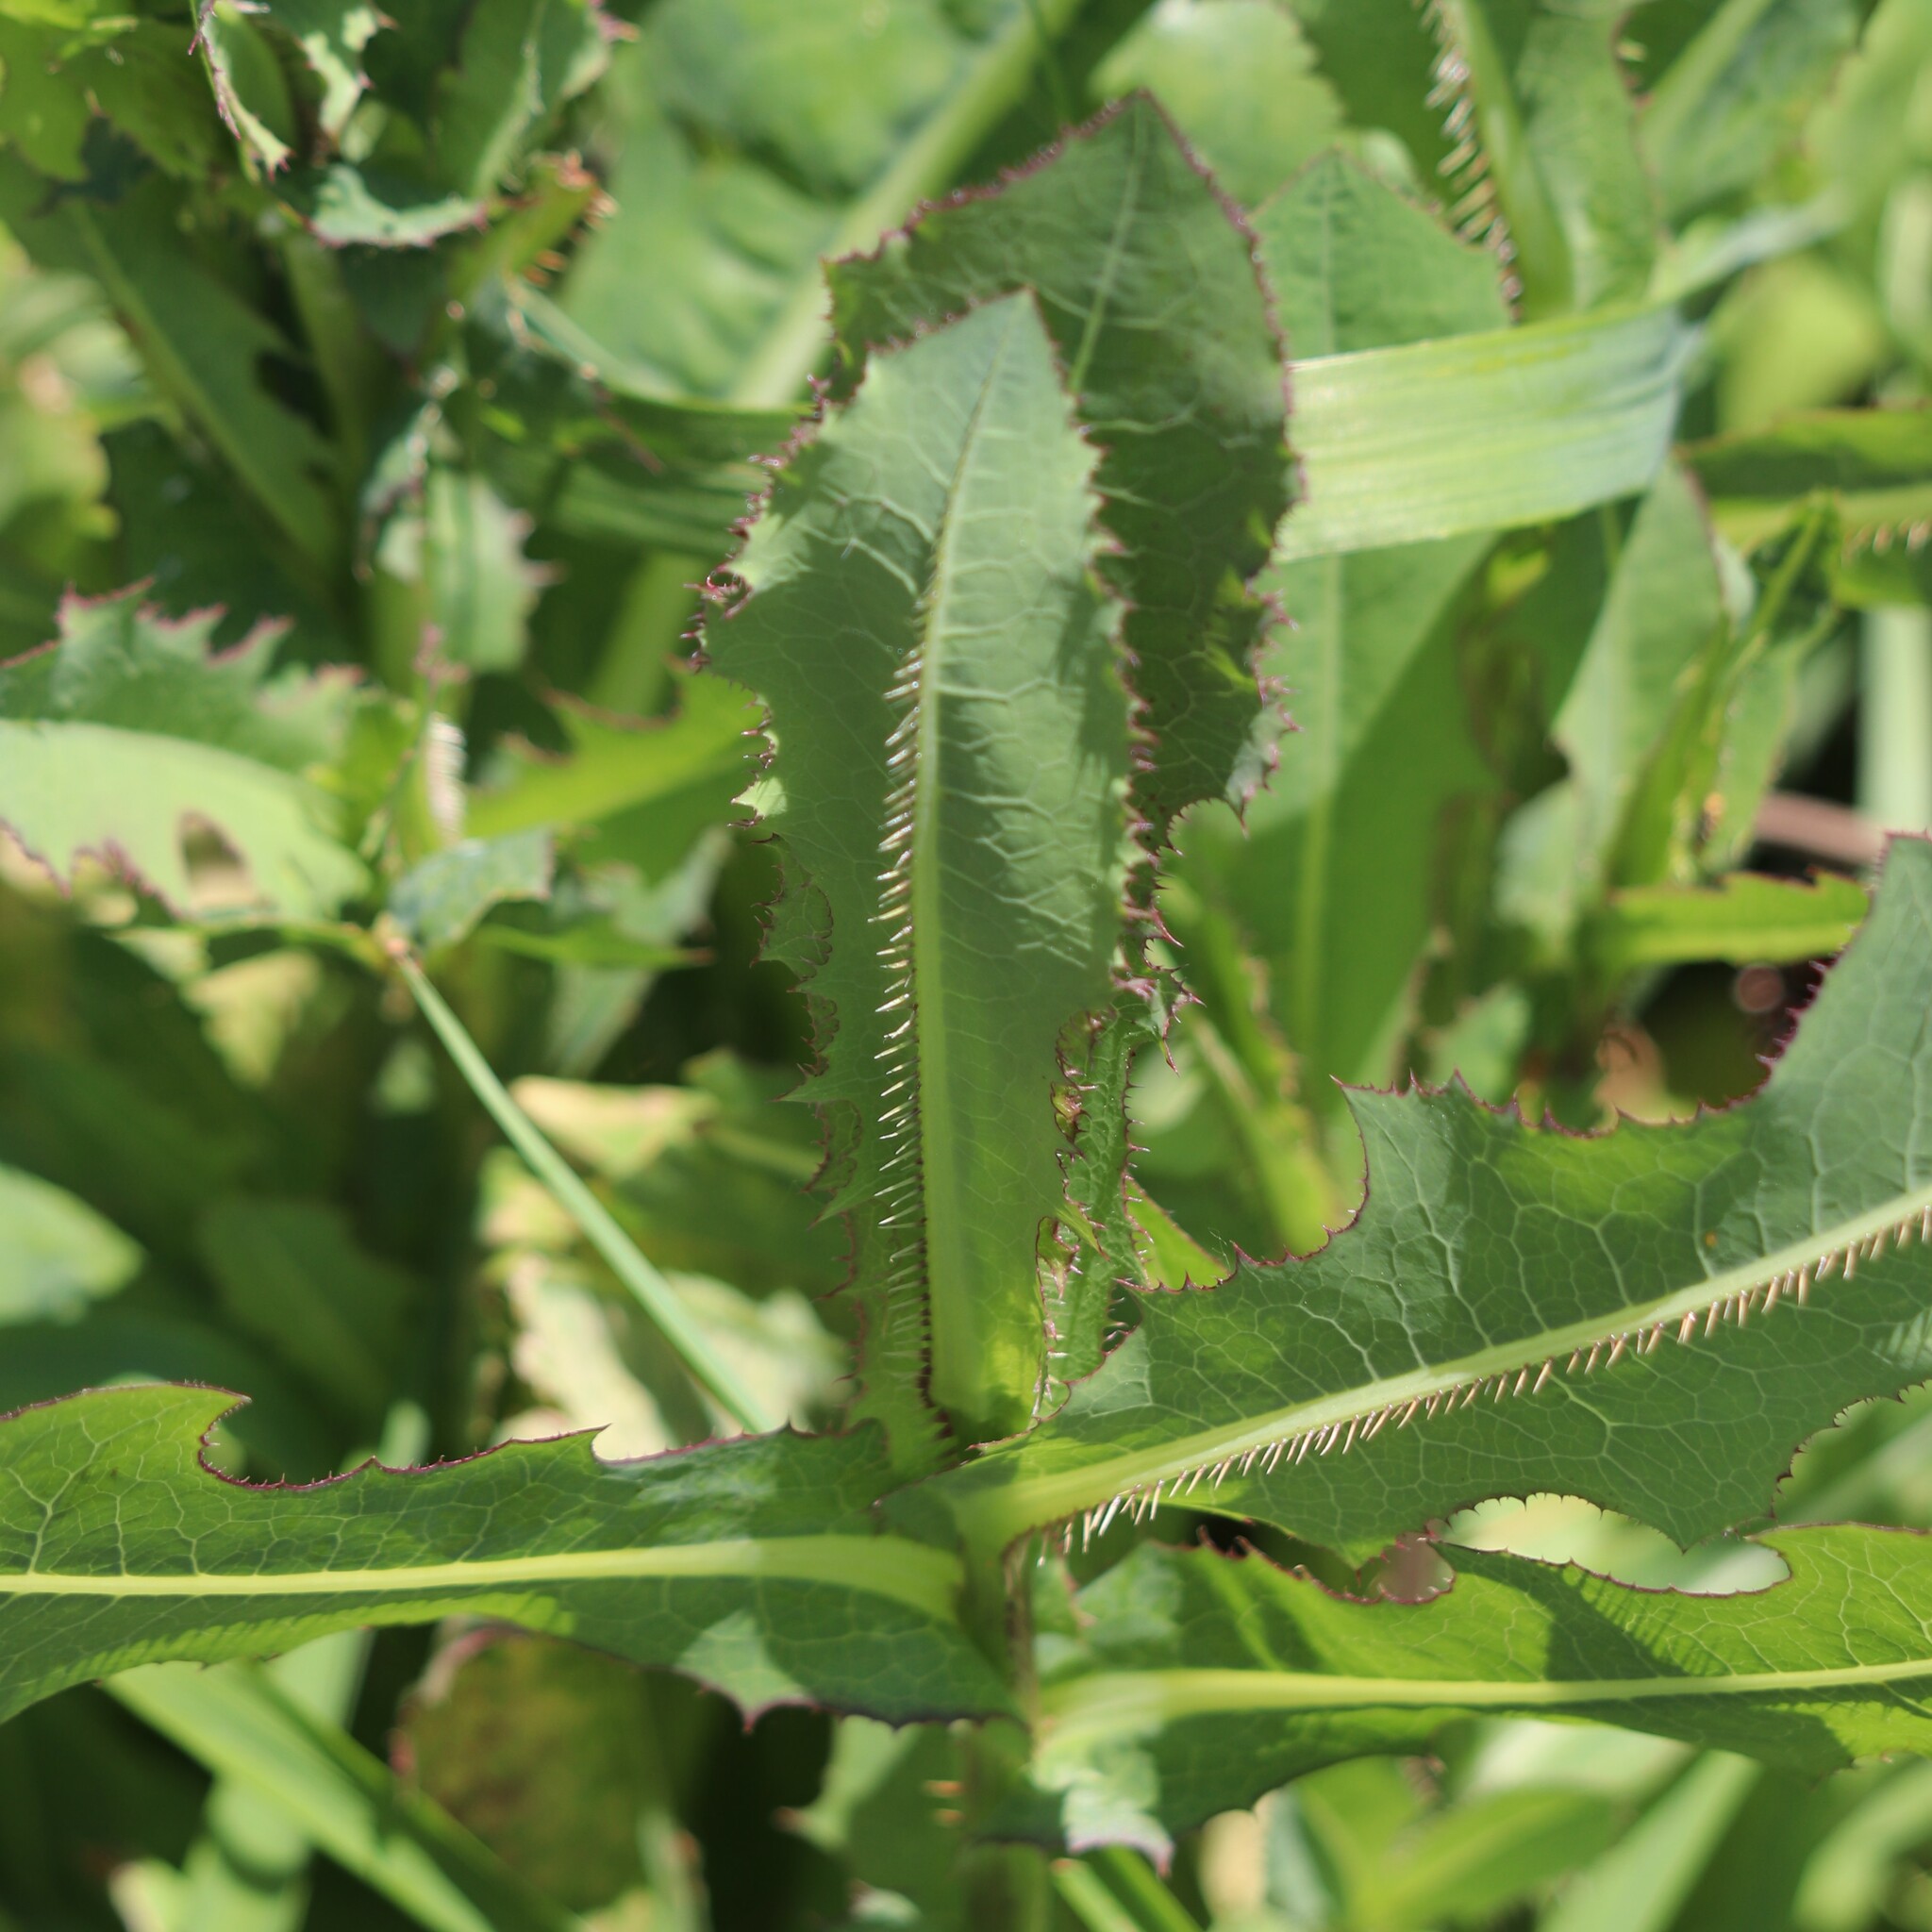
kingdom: Plantae
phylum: Tracheophyta
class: Magnoliopsida
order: Asterales
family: Asteraceae
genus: Lactuca
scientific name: Lactuca serriola
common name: Prickly lettuce
